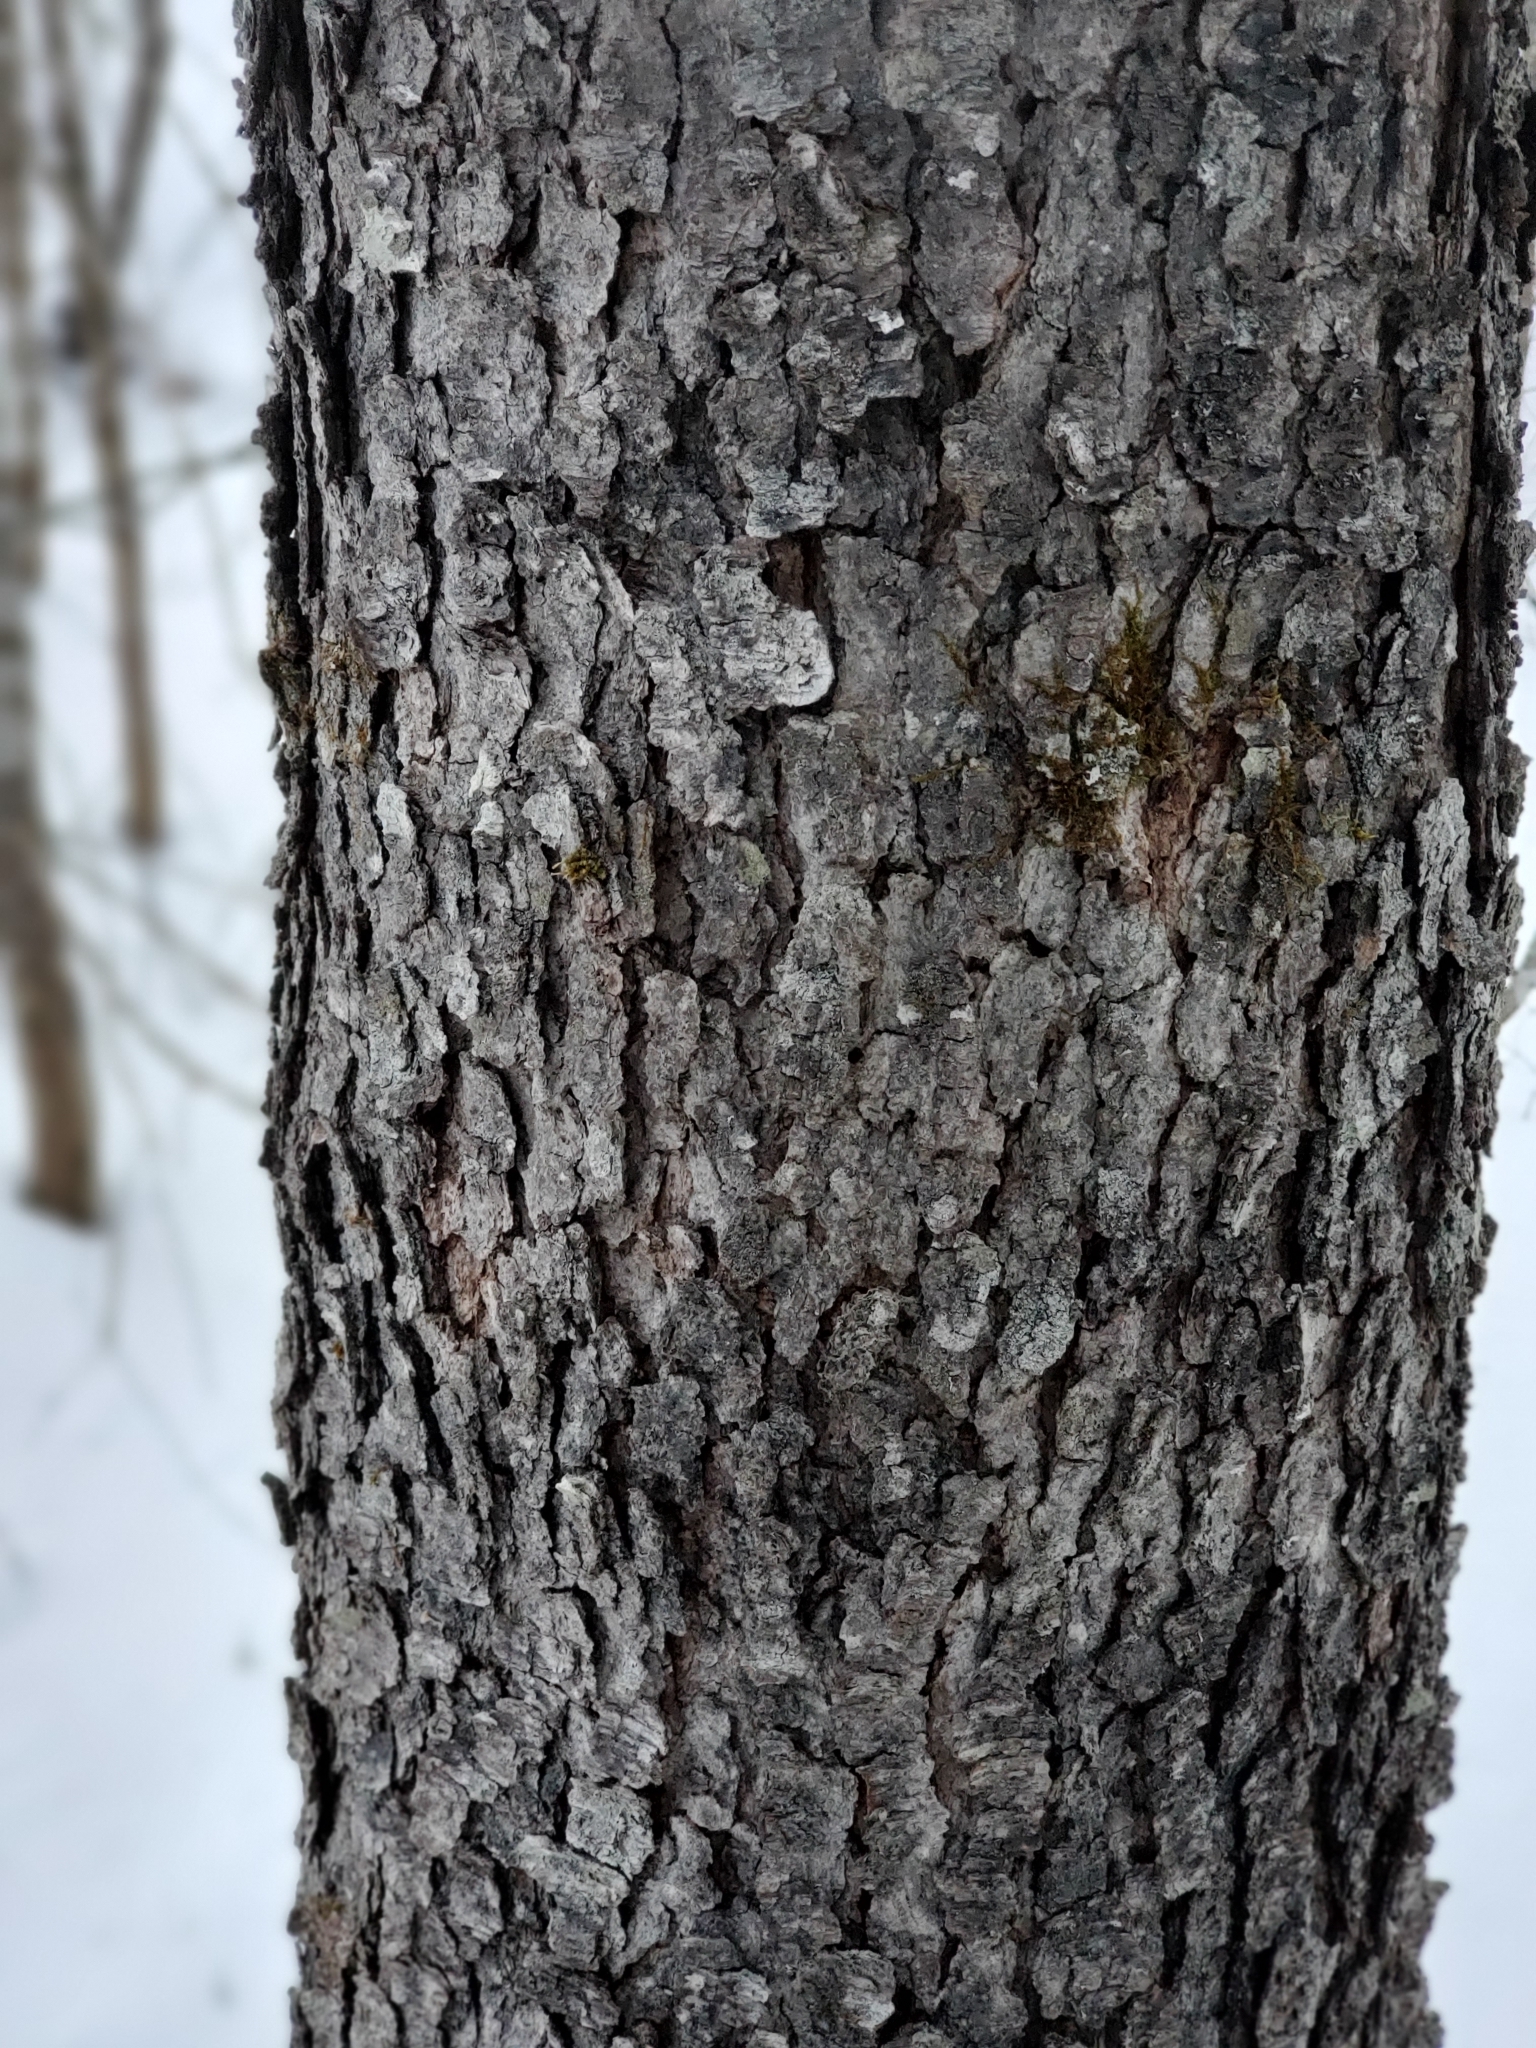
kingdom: Plantae
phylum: Tracheophyta
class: Magnoliopsida
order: Rosales
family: Rosaceae
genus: Prunus
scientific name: Prunus serotina
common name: Black cherry
